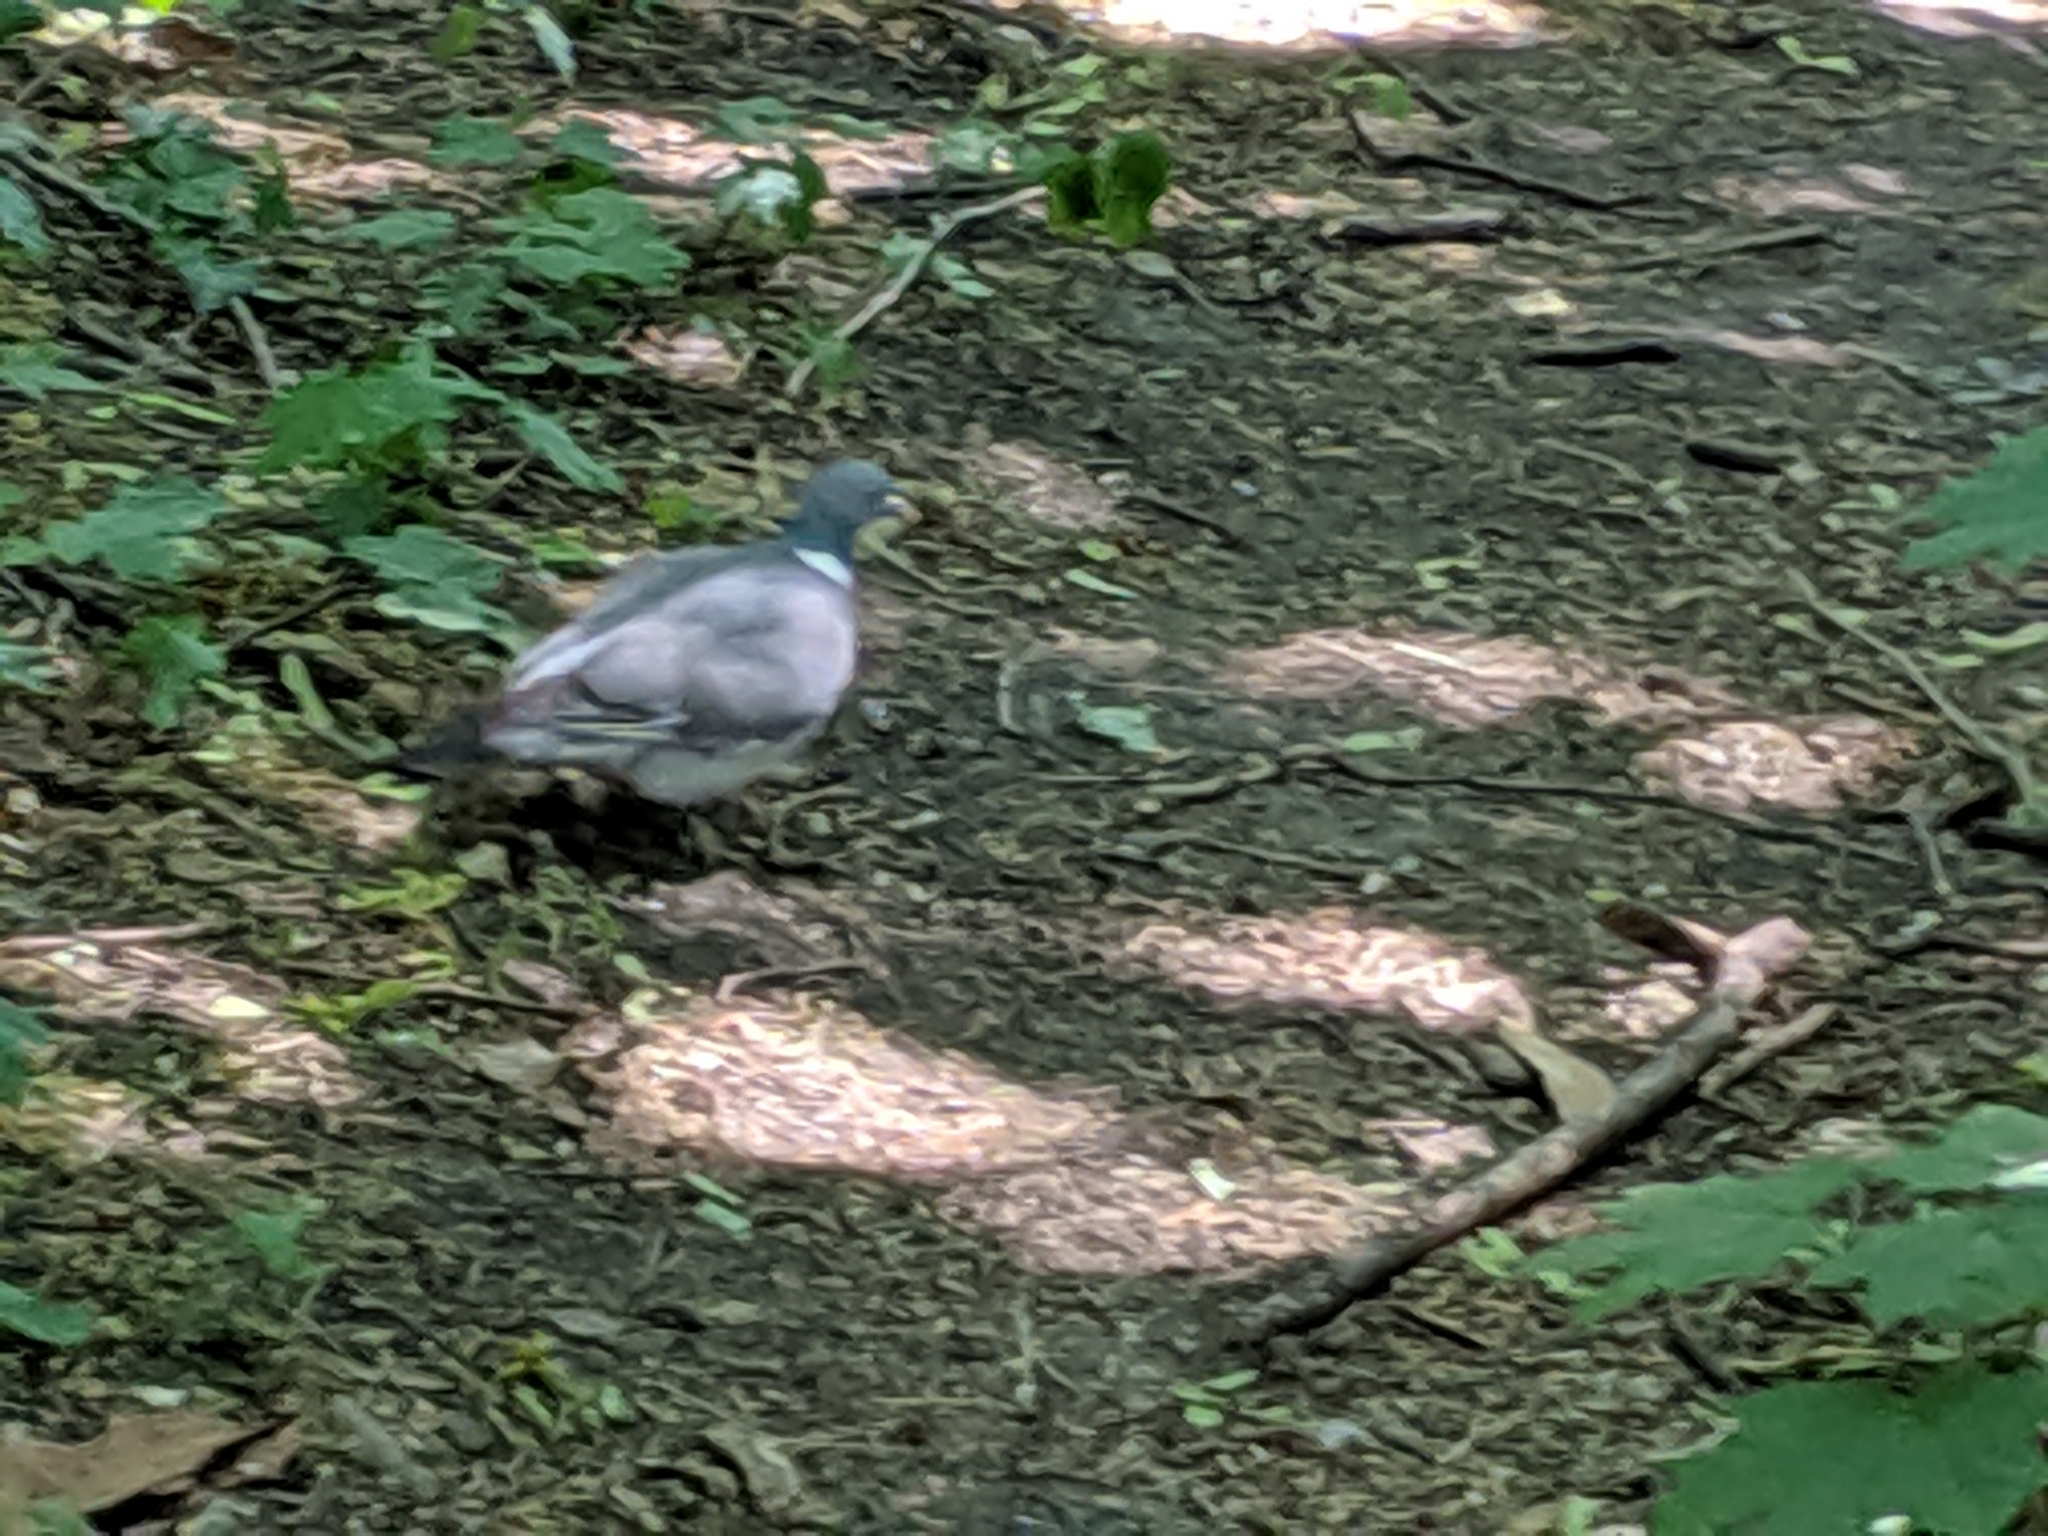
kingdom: Animalia
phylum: Chordata
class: Aves
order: Columbiformes
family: Columbidae
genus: Columba
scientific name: Columba palumbus
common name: Common wood pigeon
